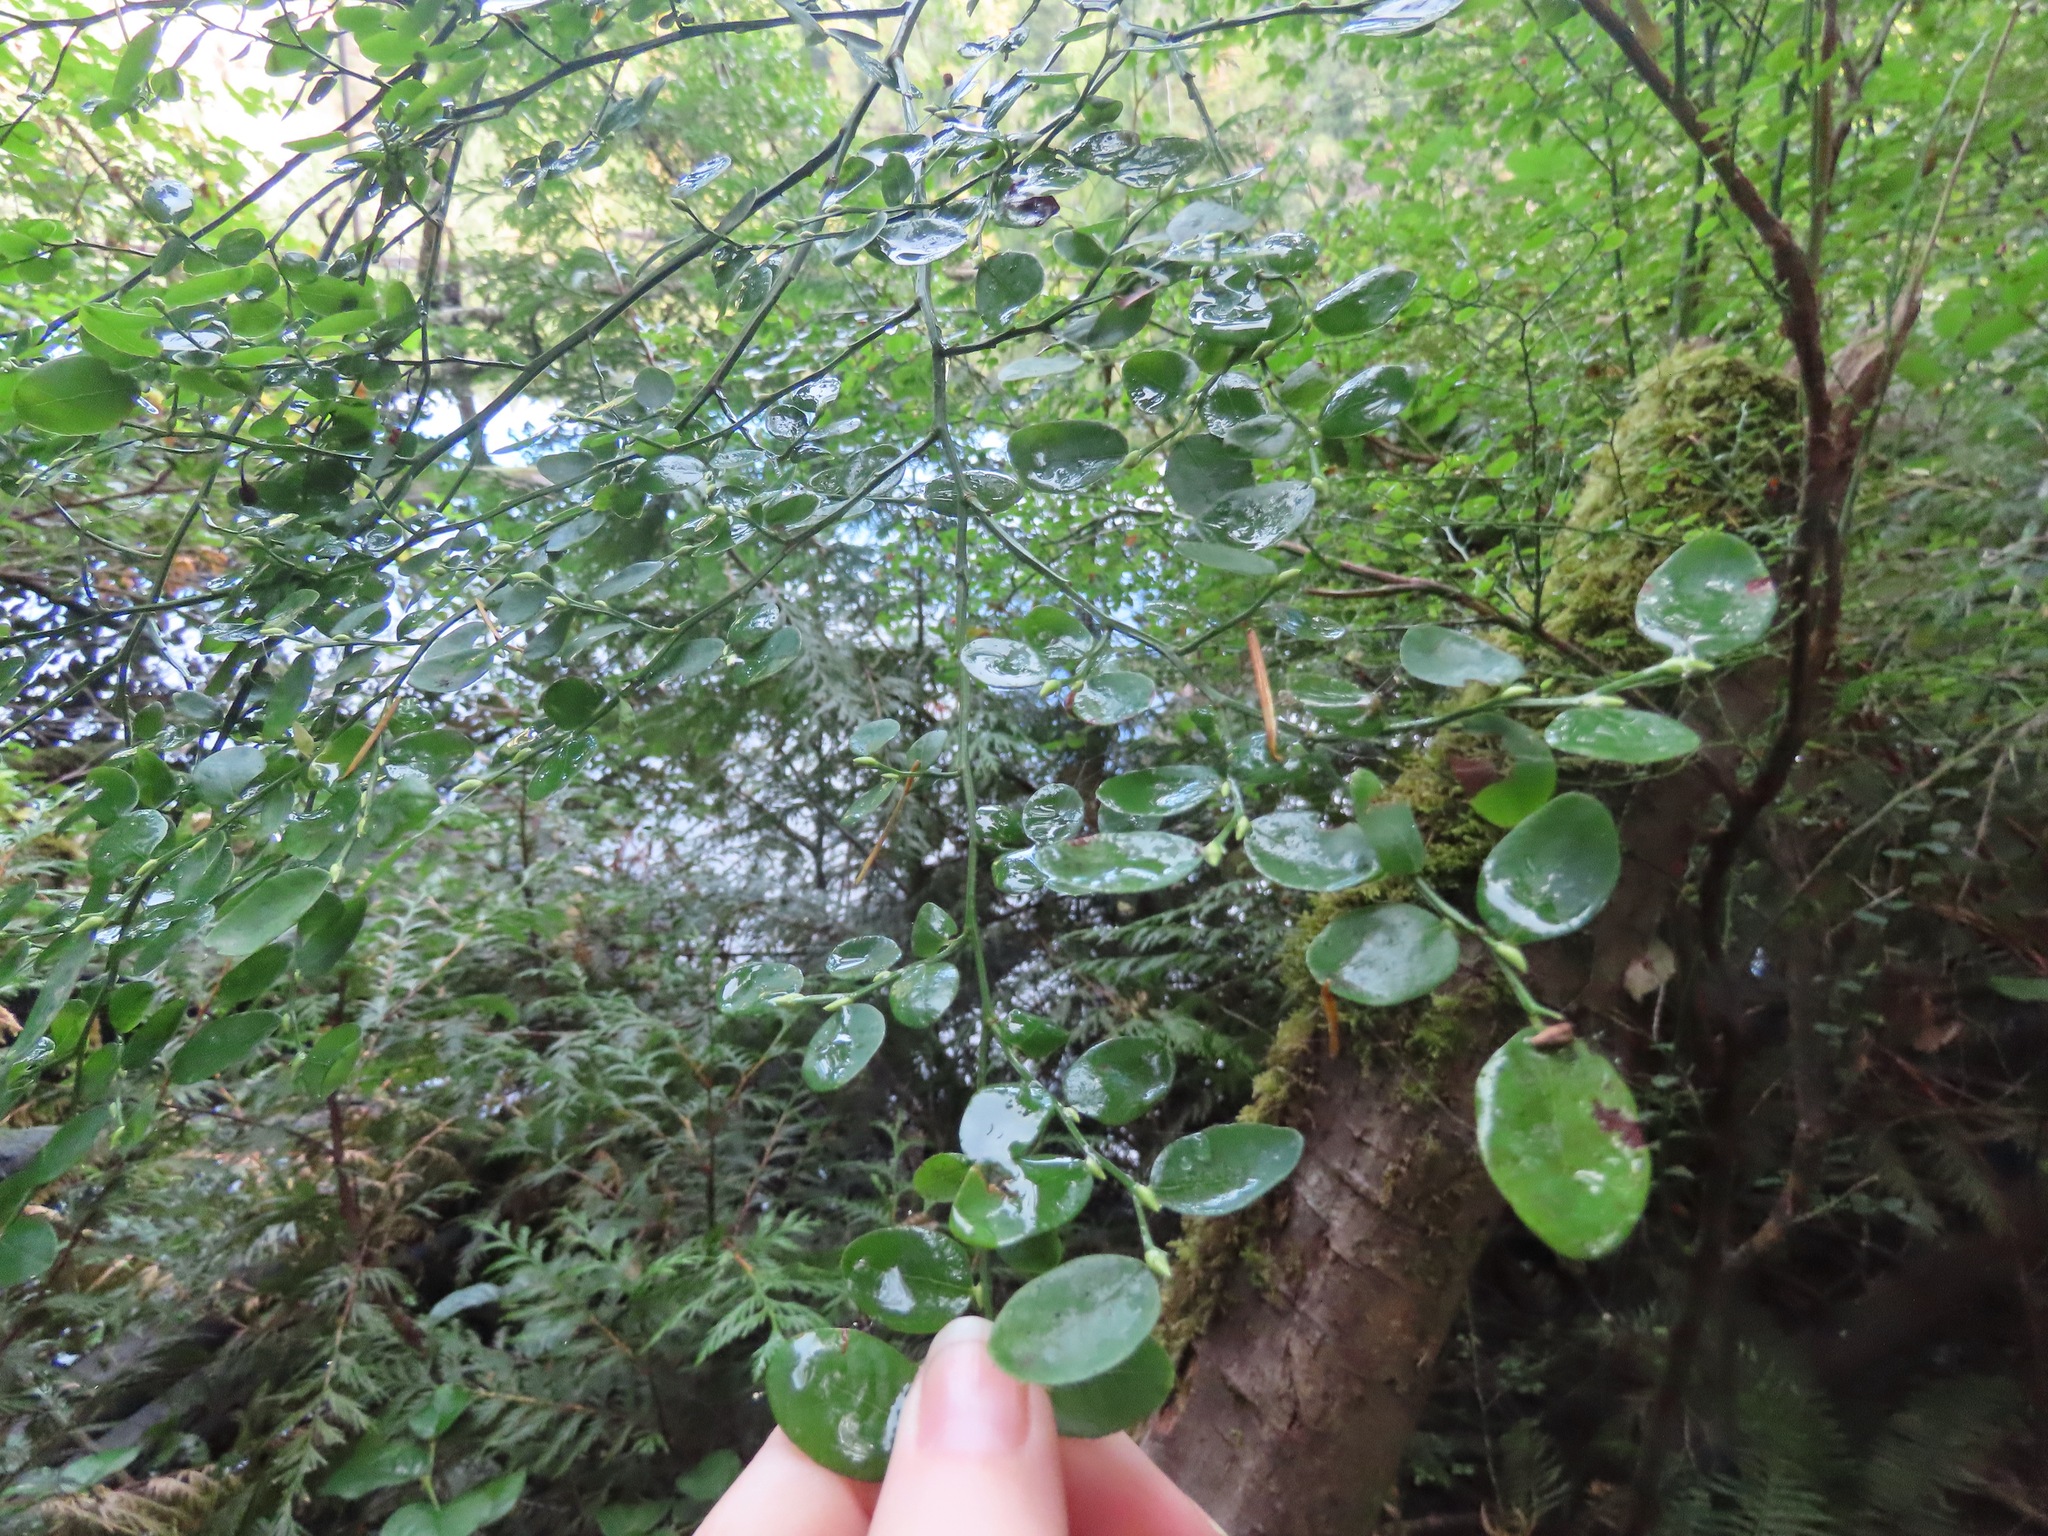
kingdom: Plantae
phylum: Tracheophyta
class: Magnoliopsida
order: Ericales
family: Ericaceae
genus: Vaccinium
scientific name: Vaccinium parvifolium
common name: Red-huckleberry
